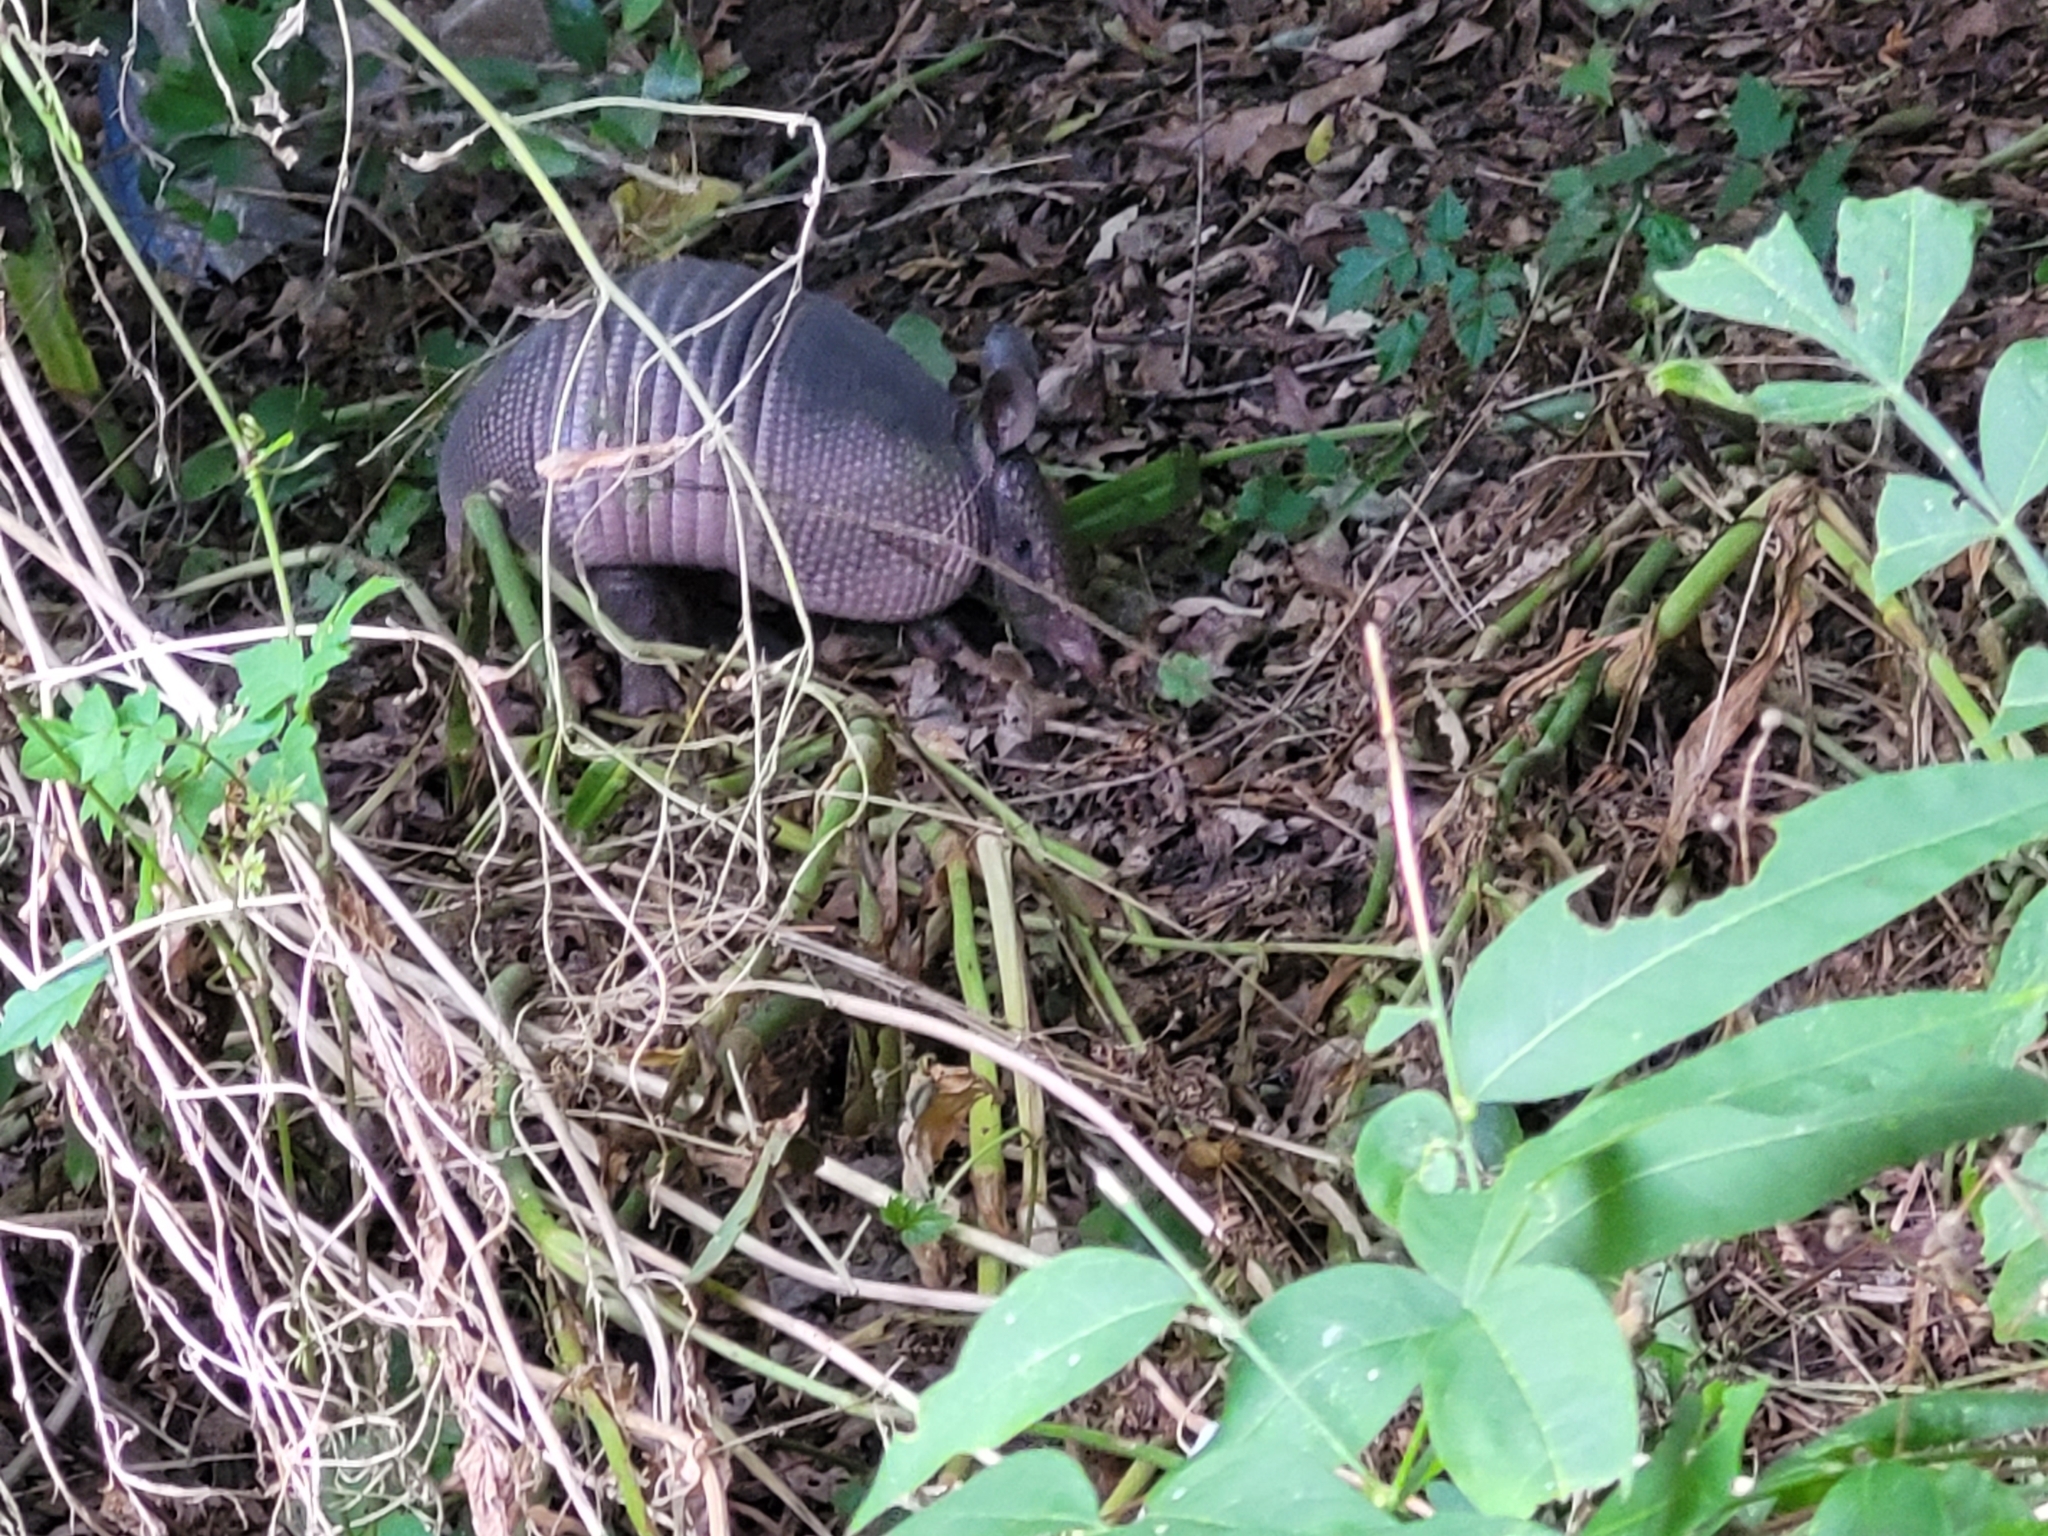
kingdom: Animalia
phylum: Chordata
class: Mammalia
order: Cingulata
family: Dasypodidae
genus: Dasypus
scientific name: Dasypus novemcinctus
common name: Nine-banded armadillo
